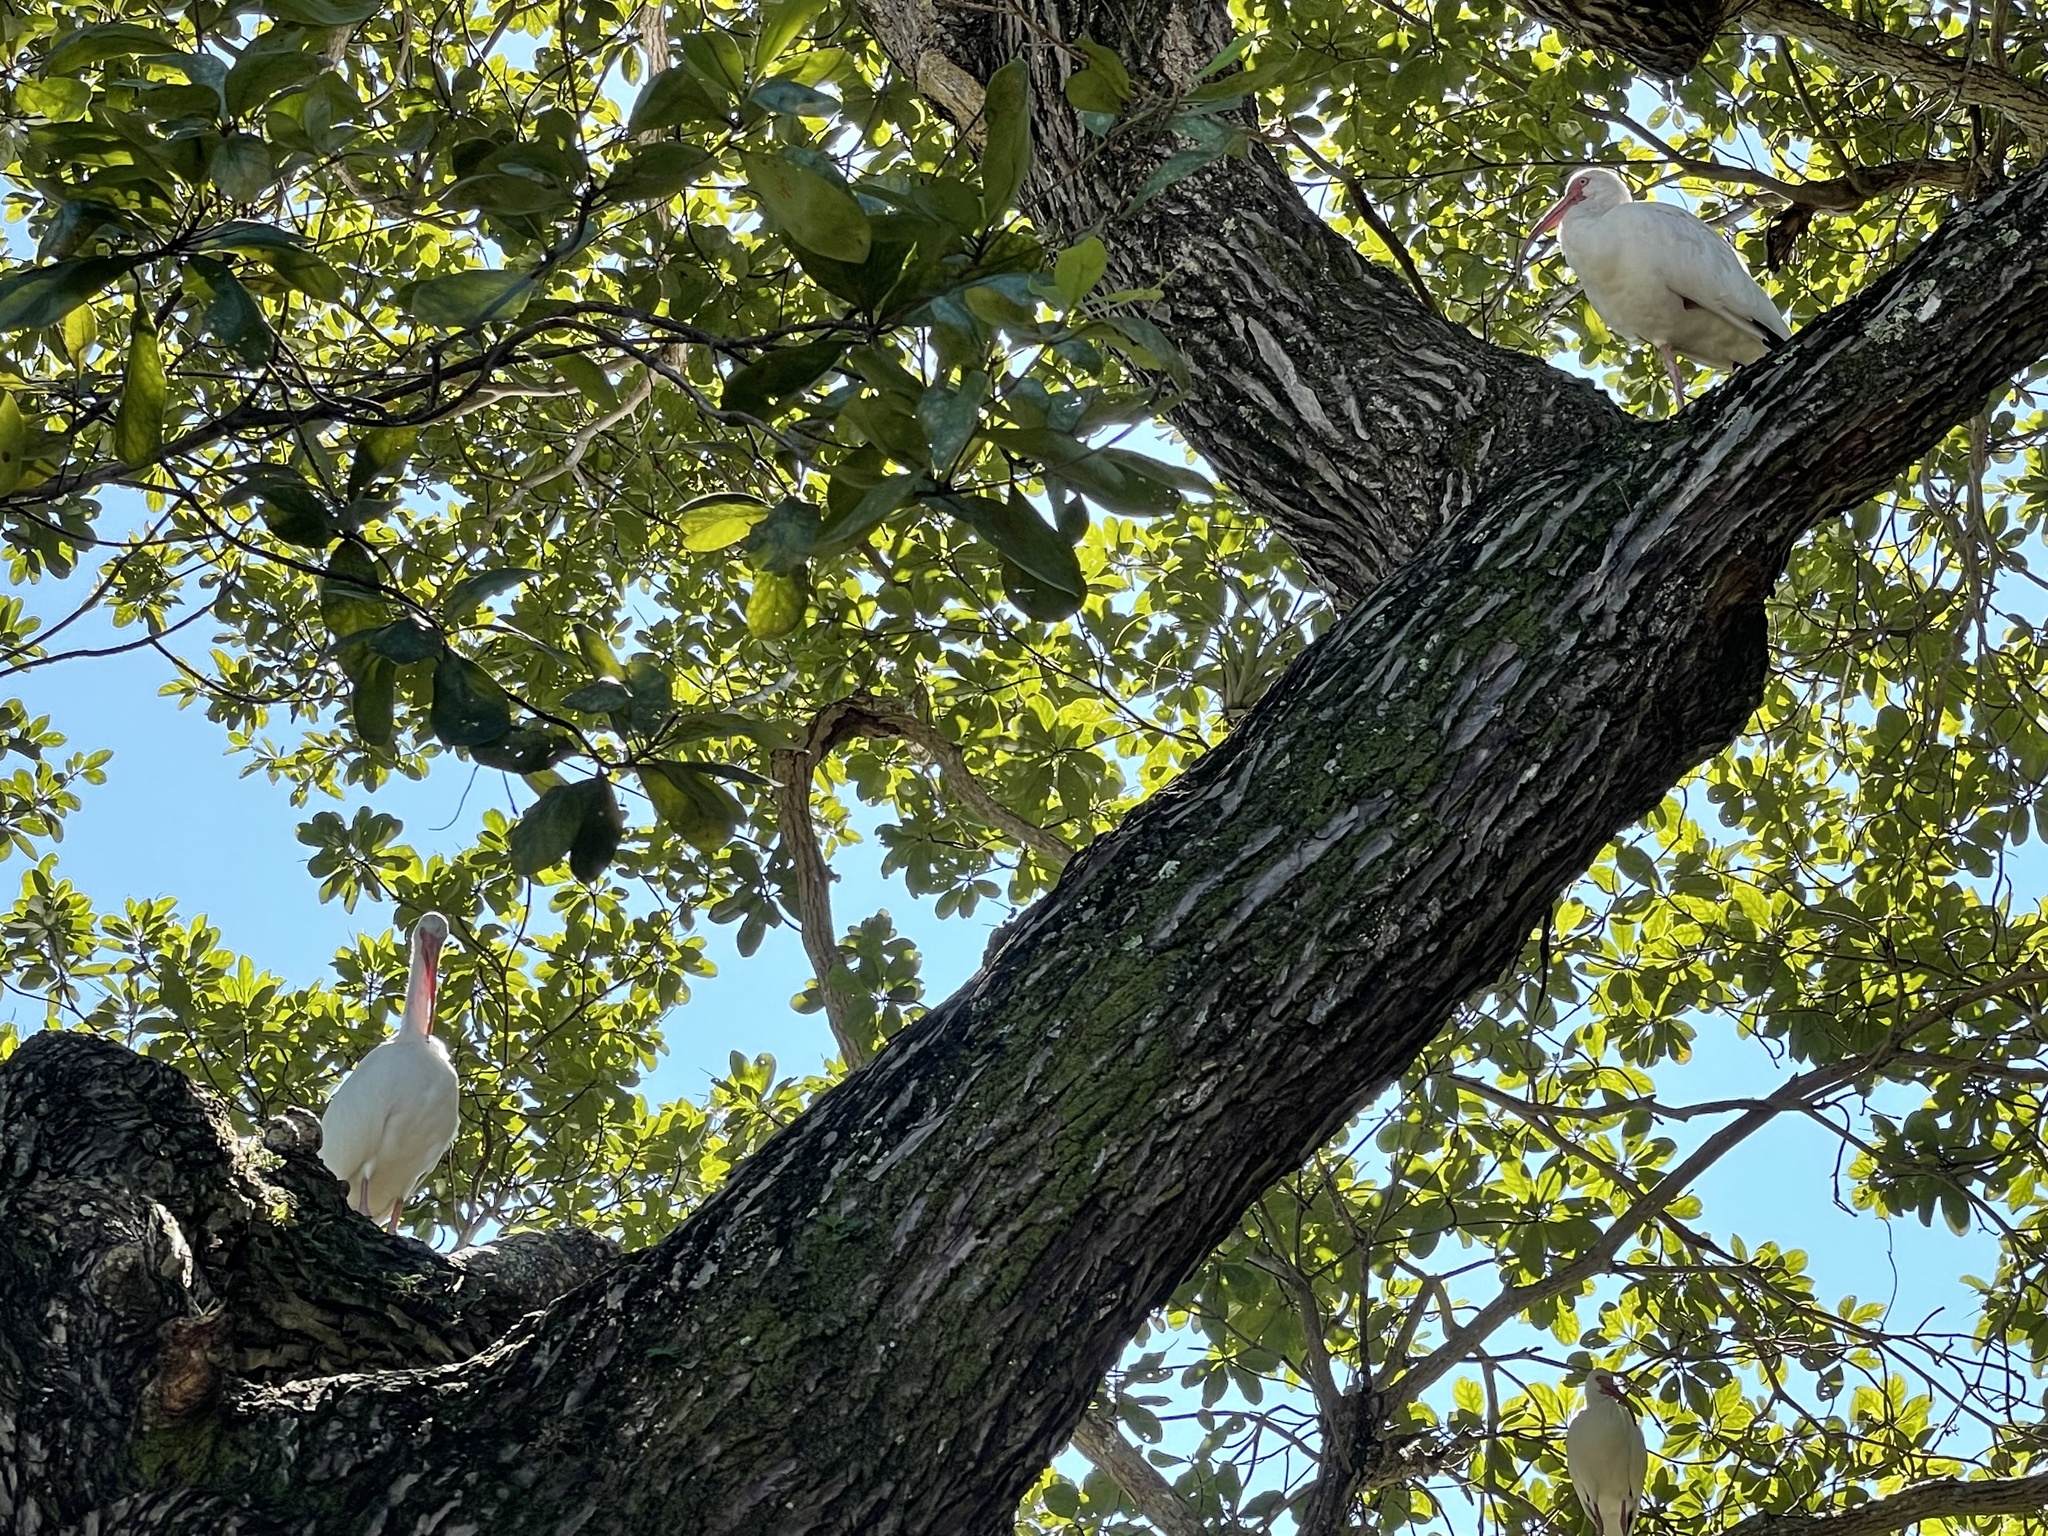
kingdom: Animalia
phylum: Chordata
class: Aves
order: Pelecaniformes
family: Threskiornithidae
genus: Eudocimus
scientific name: Eudocimus albus
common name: White ibis
